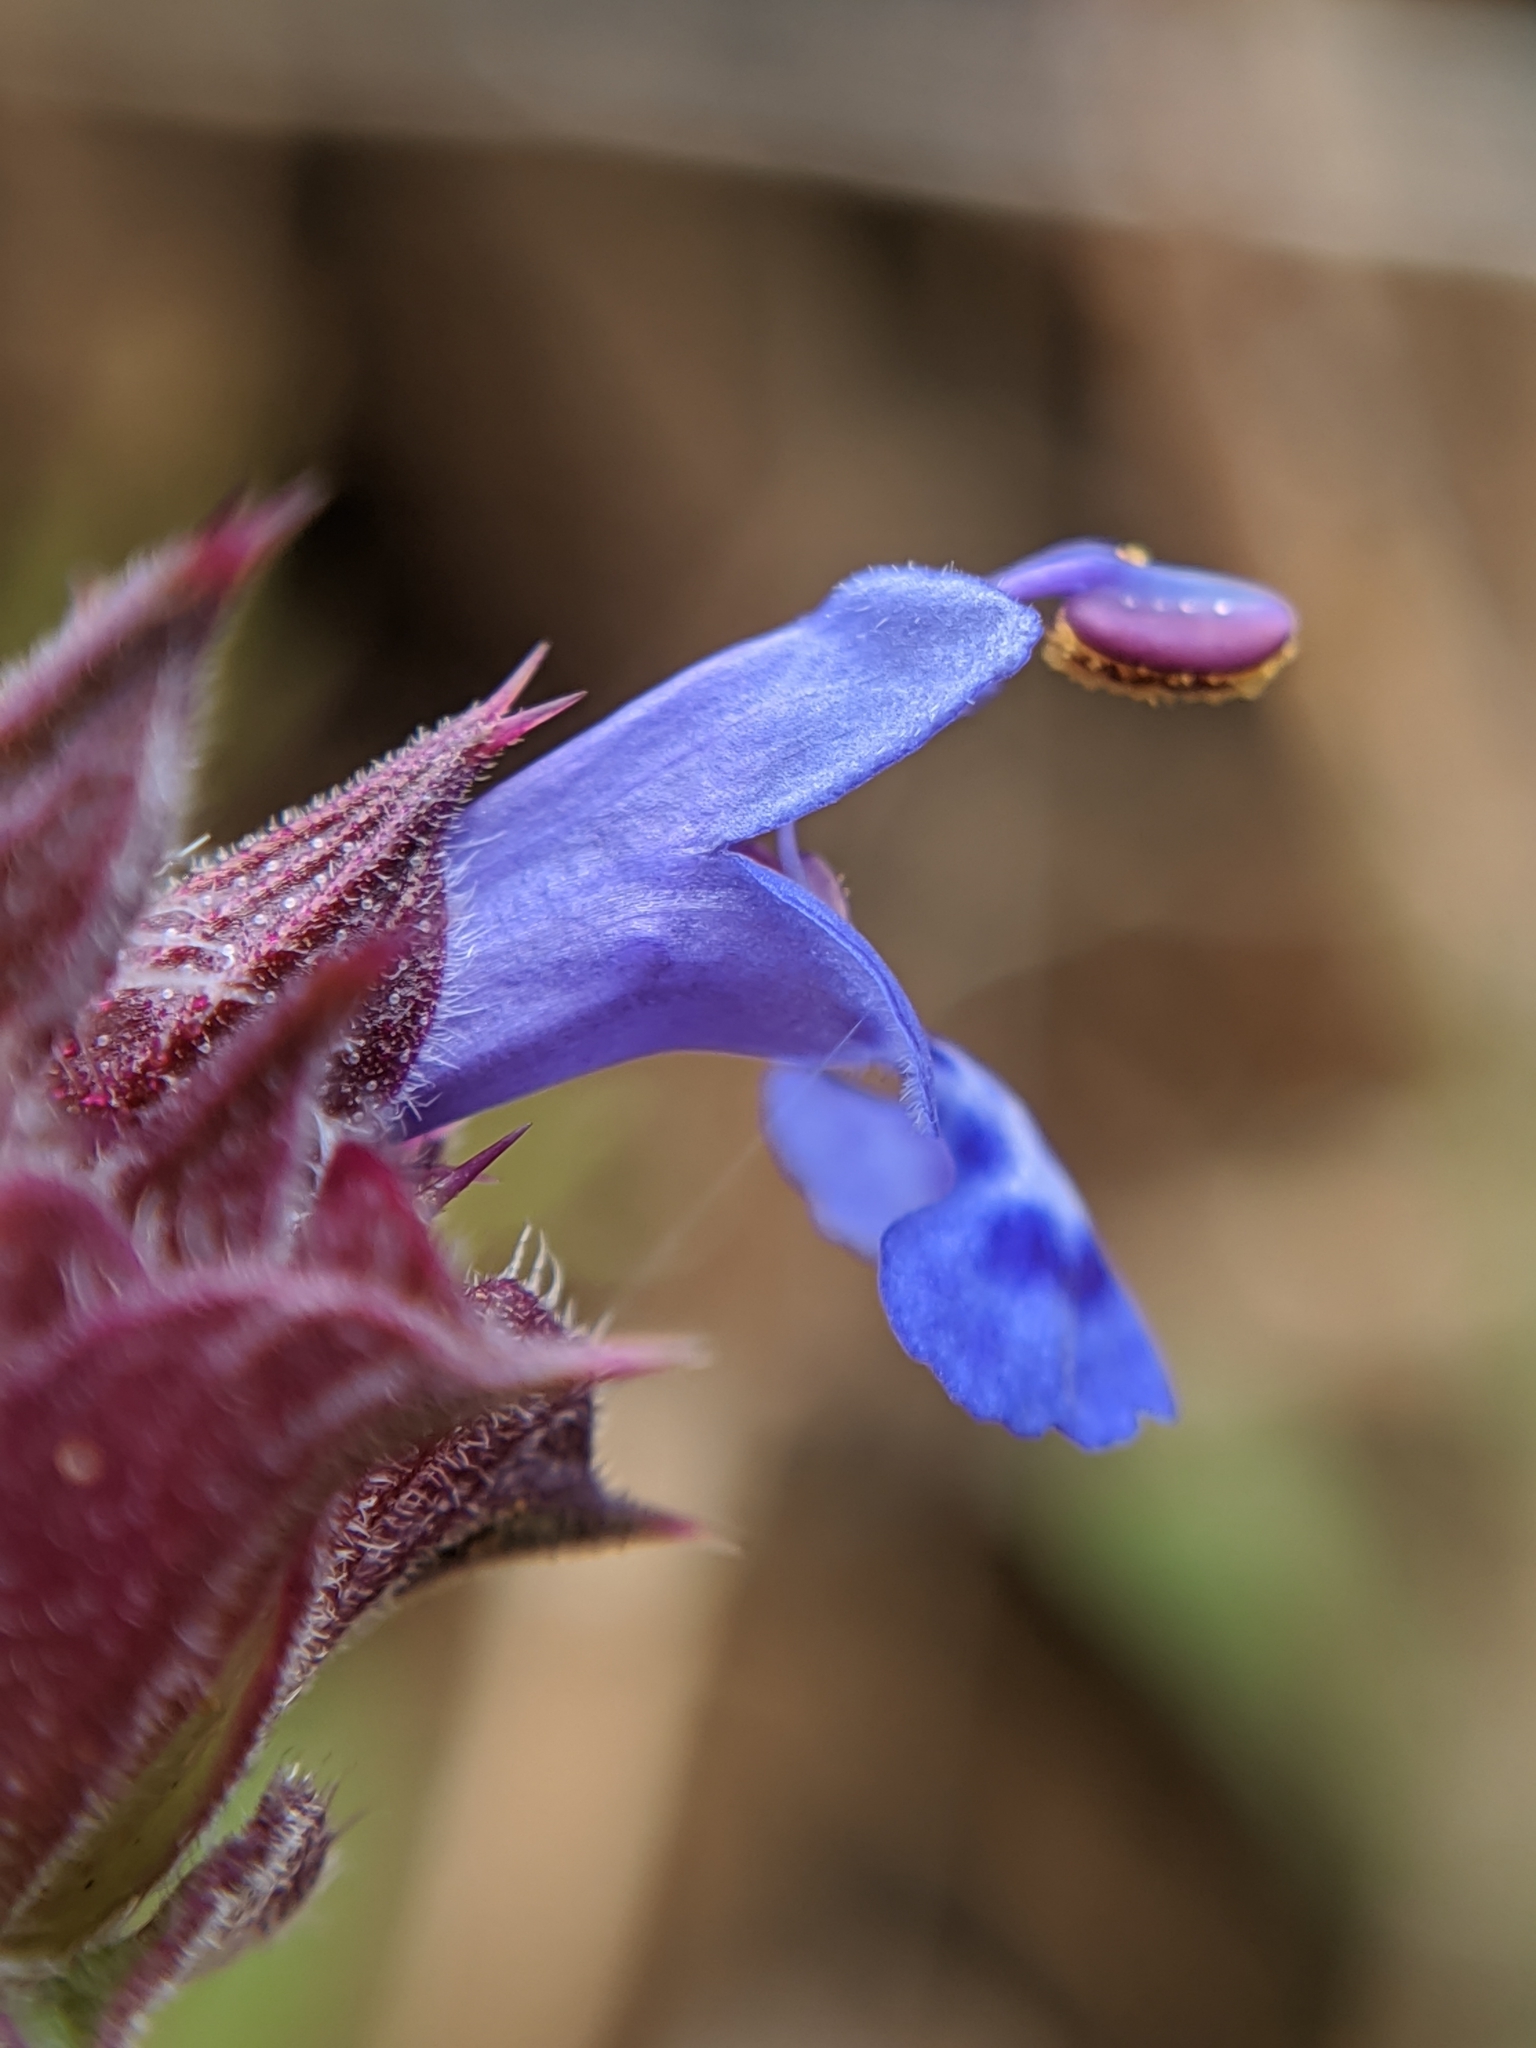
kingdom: Plantae
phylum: Tracheophyta
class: Magnoliopsida
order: Lamiales
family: Lamiaceae
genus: Salvia
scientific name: Salvia columbariae
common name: Chia
